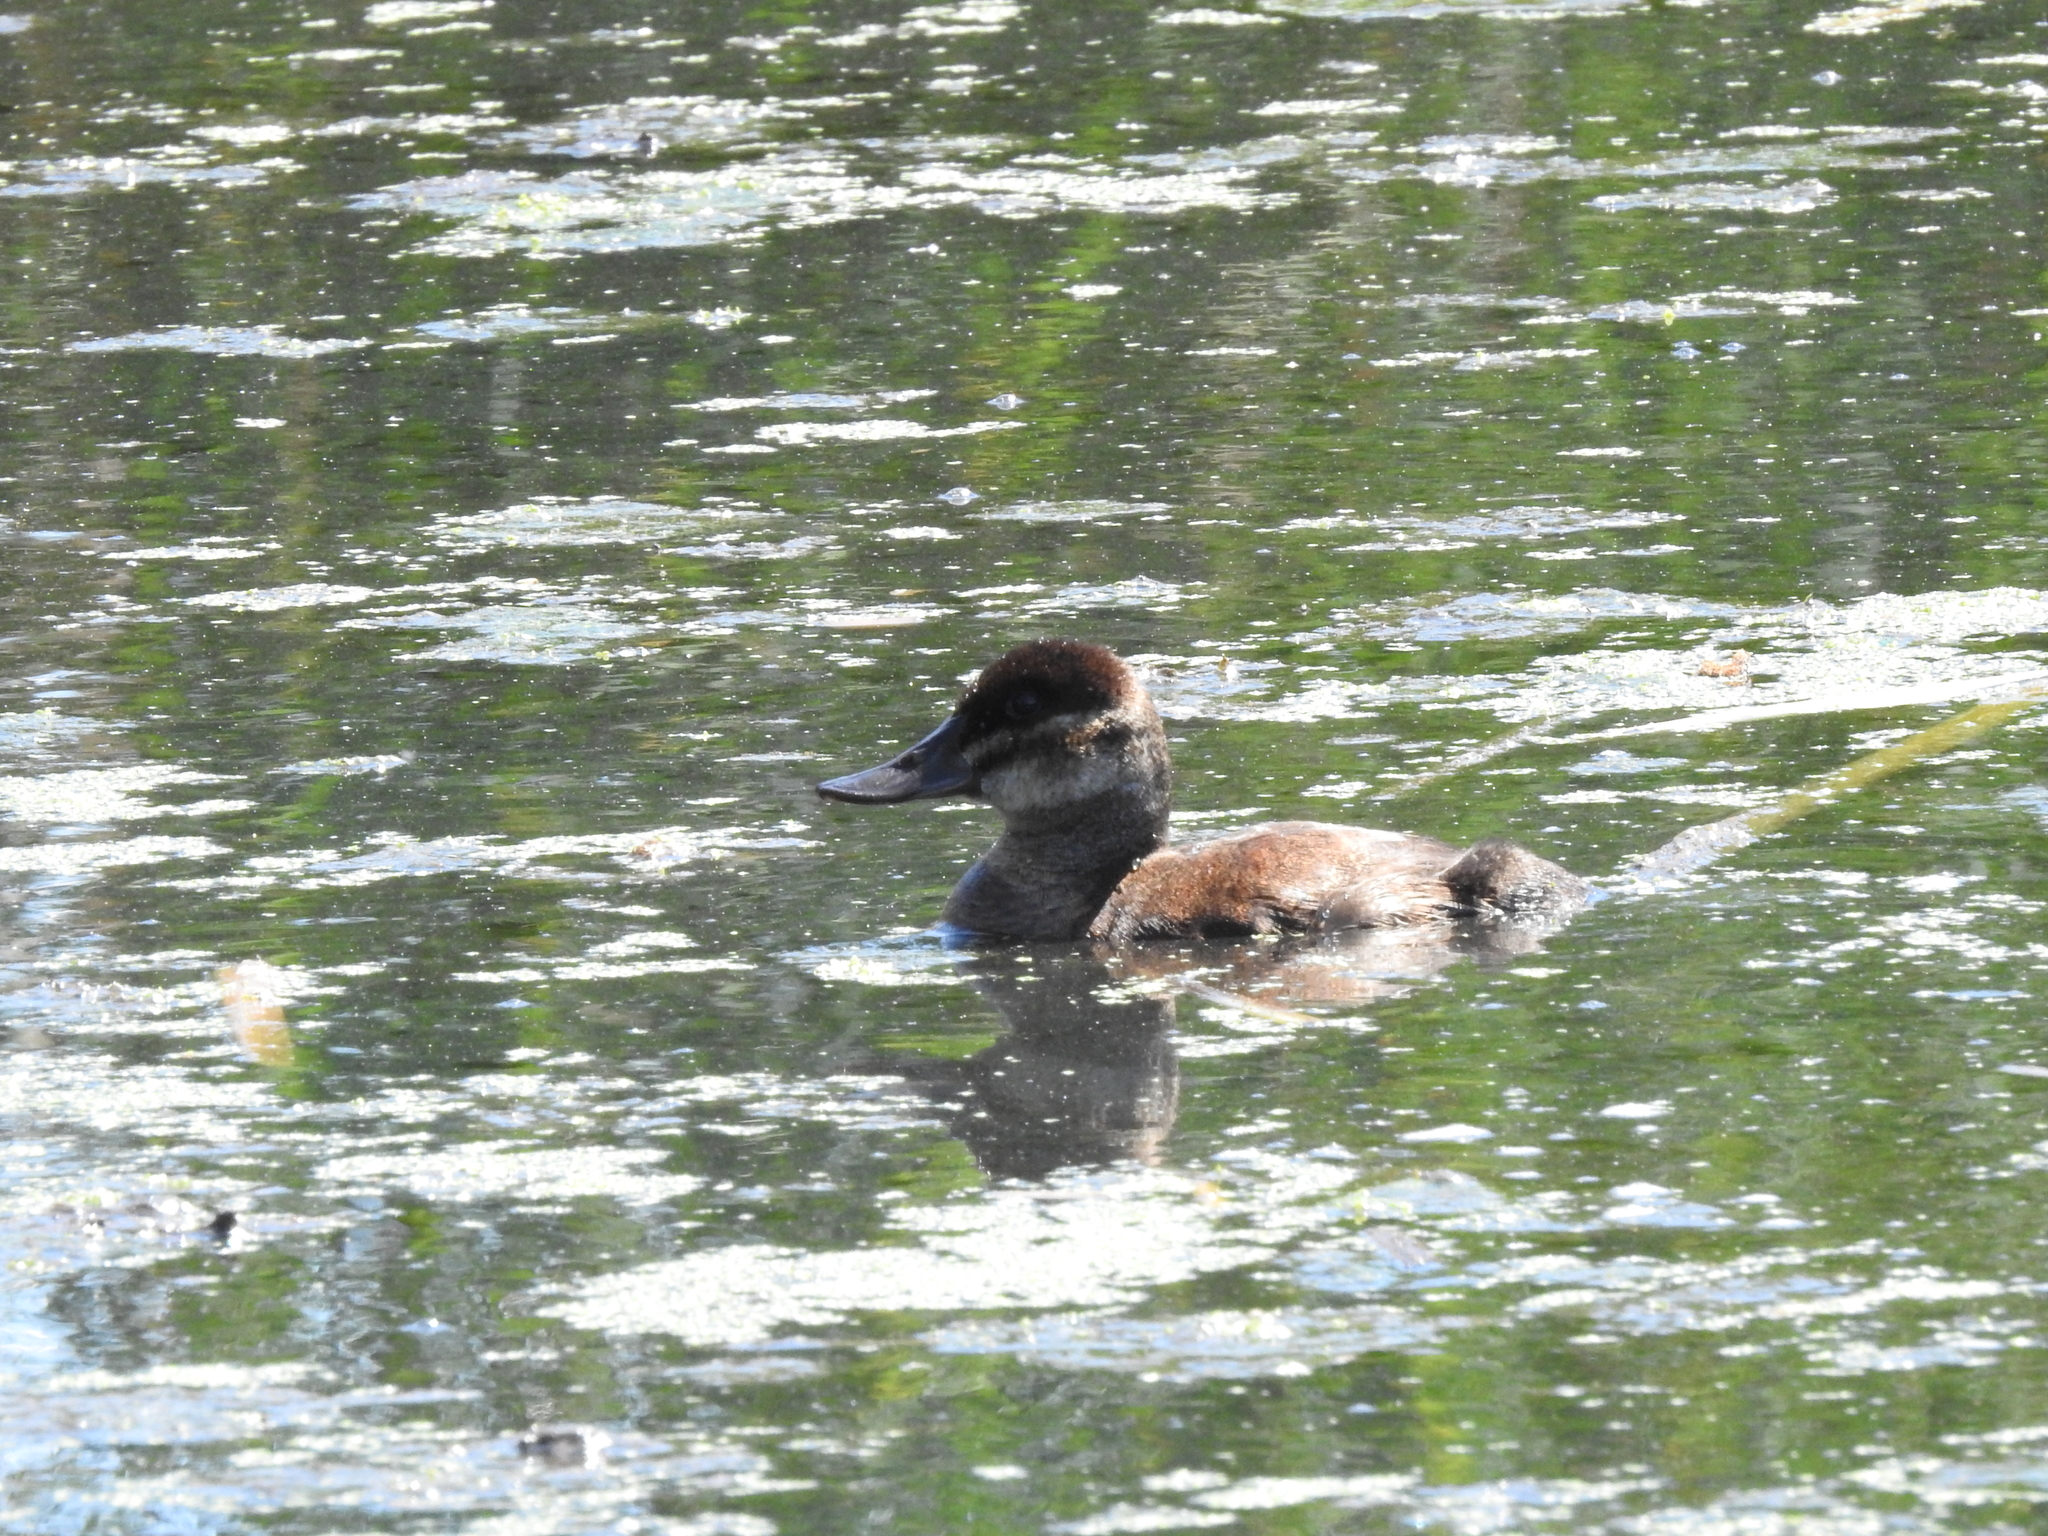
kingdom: Animalia
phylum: Chordata
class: Aves
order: Anseriformes
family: Anatidae
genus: Oxyura
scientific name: Oxyura jamaicensis
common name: Ruddy duck
